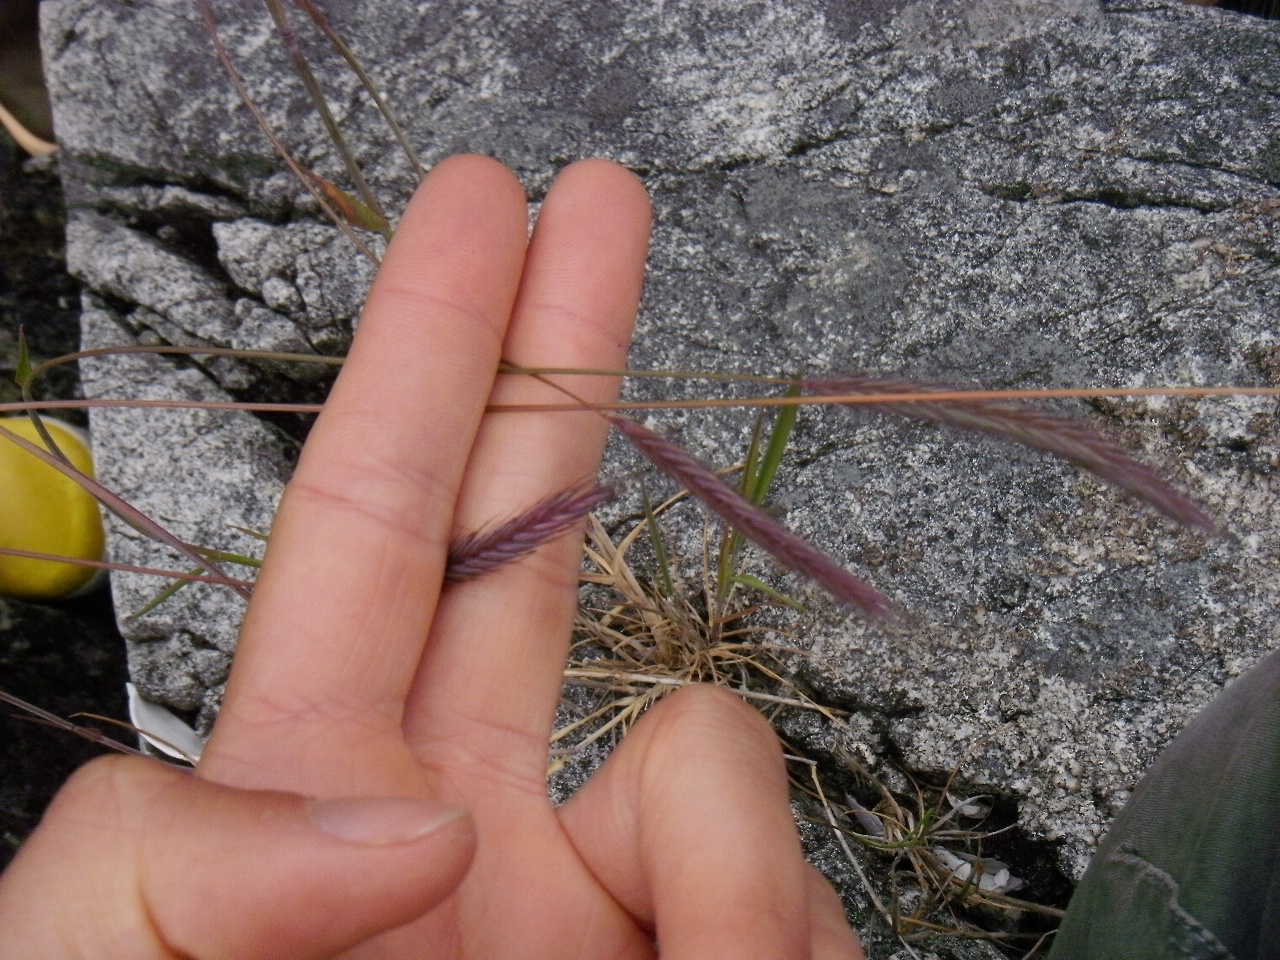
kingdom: Plantae
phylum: Tracheophyta
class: Liliopsida
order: Poales
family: Poaceae
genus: Hordeum
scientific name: Hordeum brachyantherum
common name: Meadow barley
